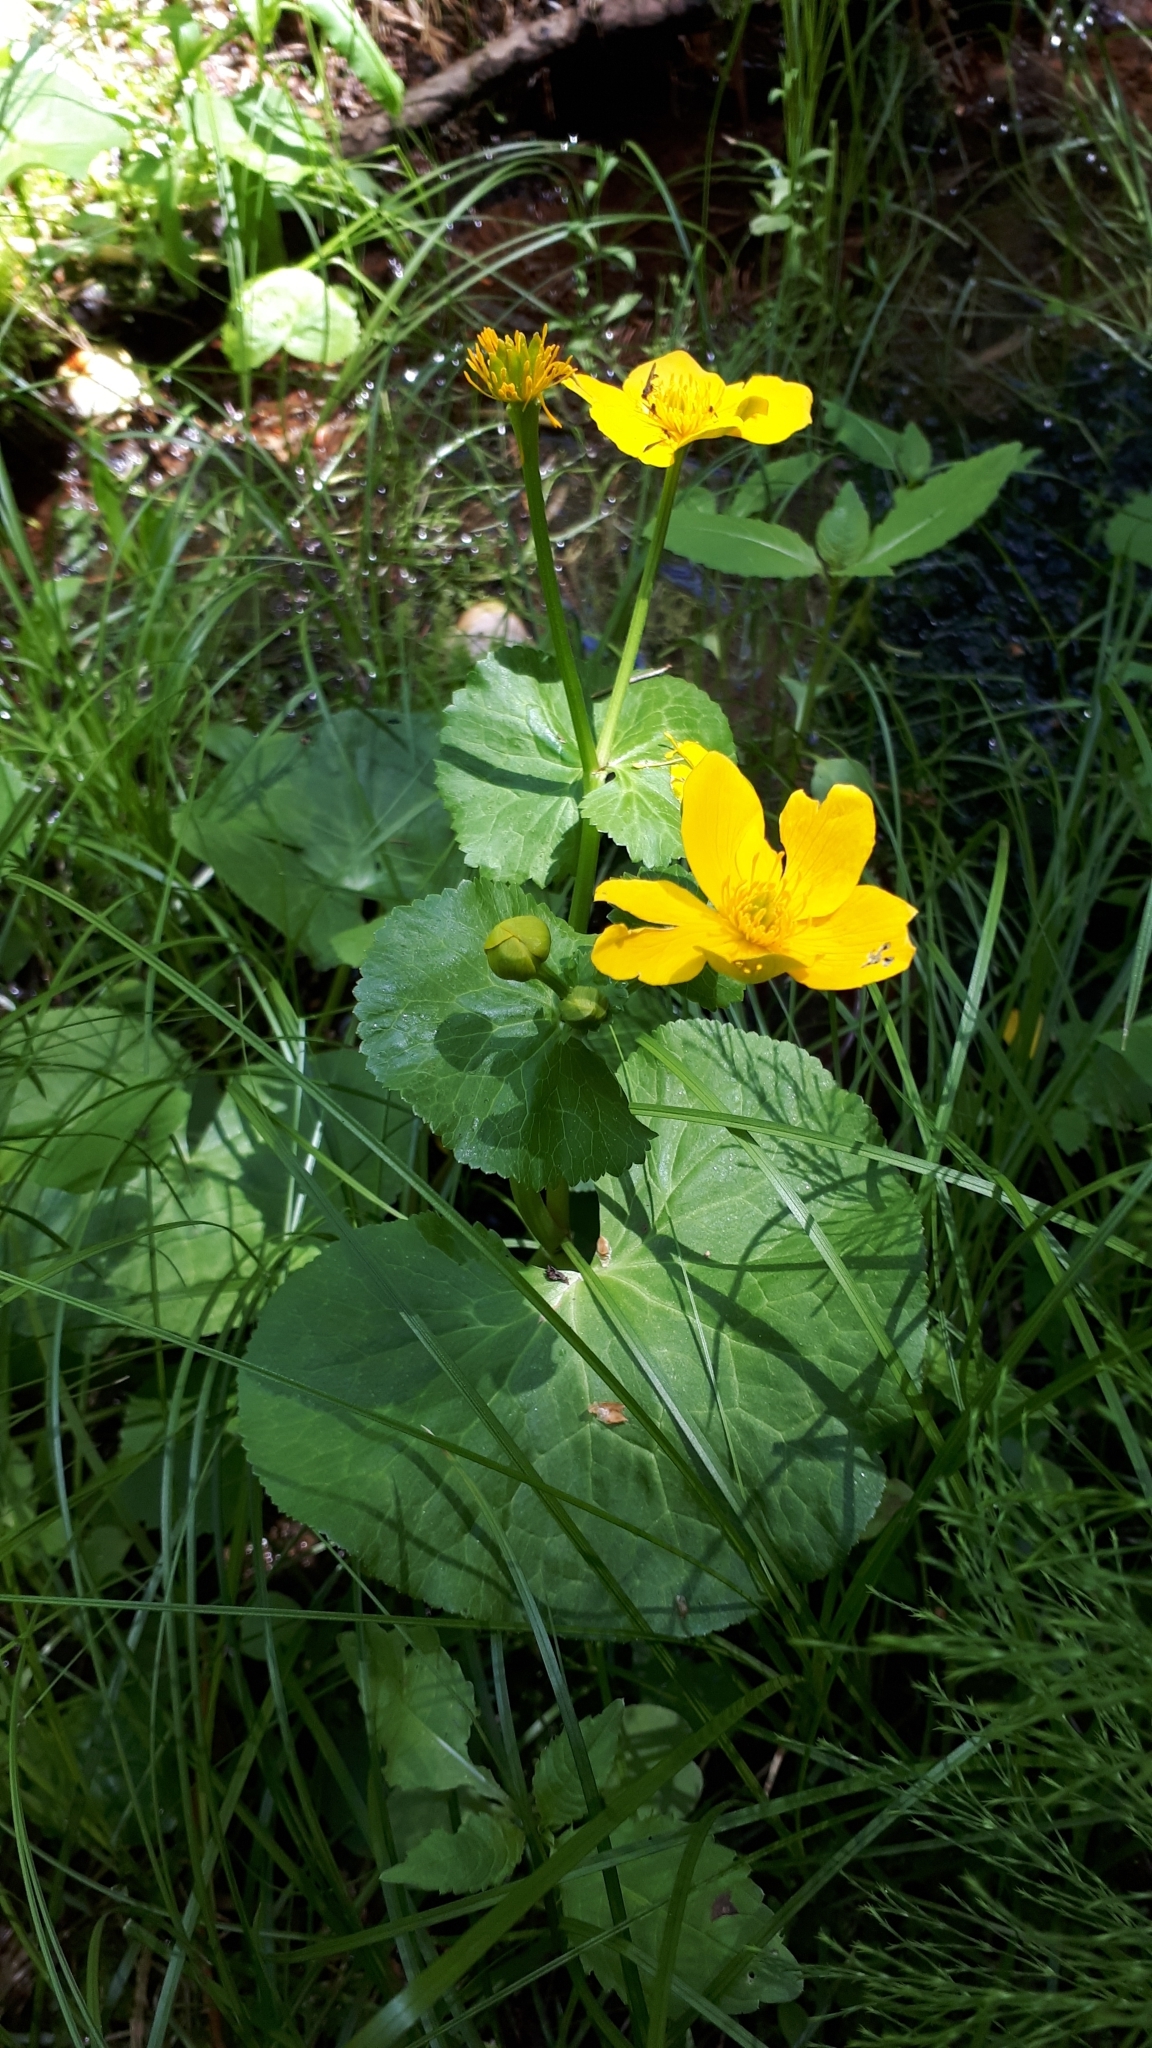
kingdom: Plantae
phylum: Tracheophyta
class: Magnoliopsida
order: Ranunculales
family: Ranunculaceae
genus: Caltha
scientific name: Caltha palustris
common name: Marsh marigold
